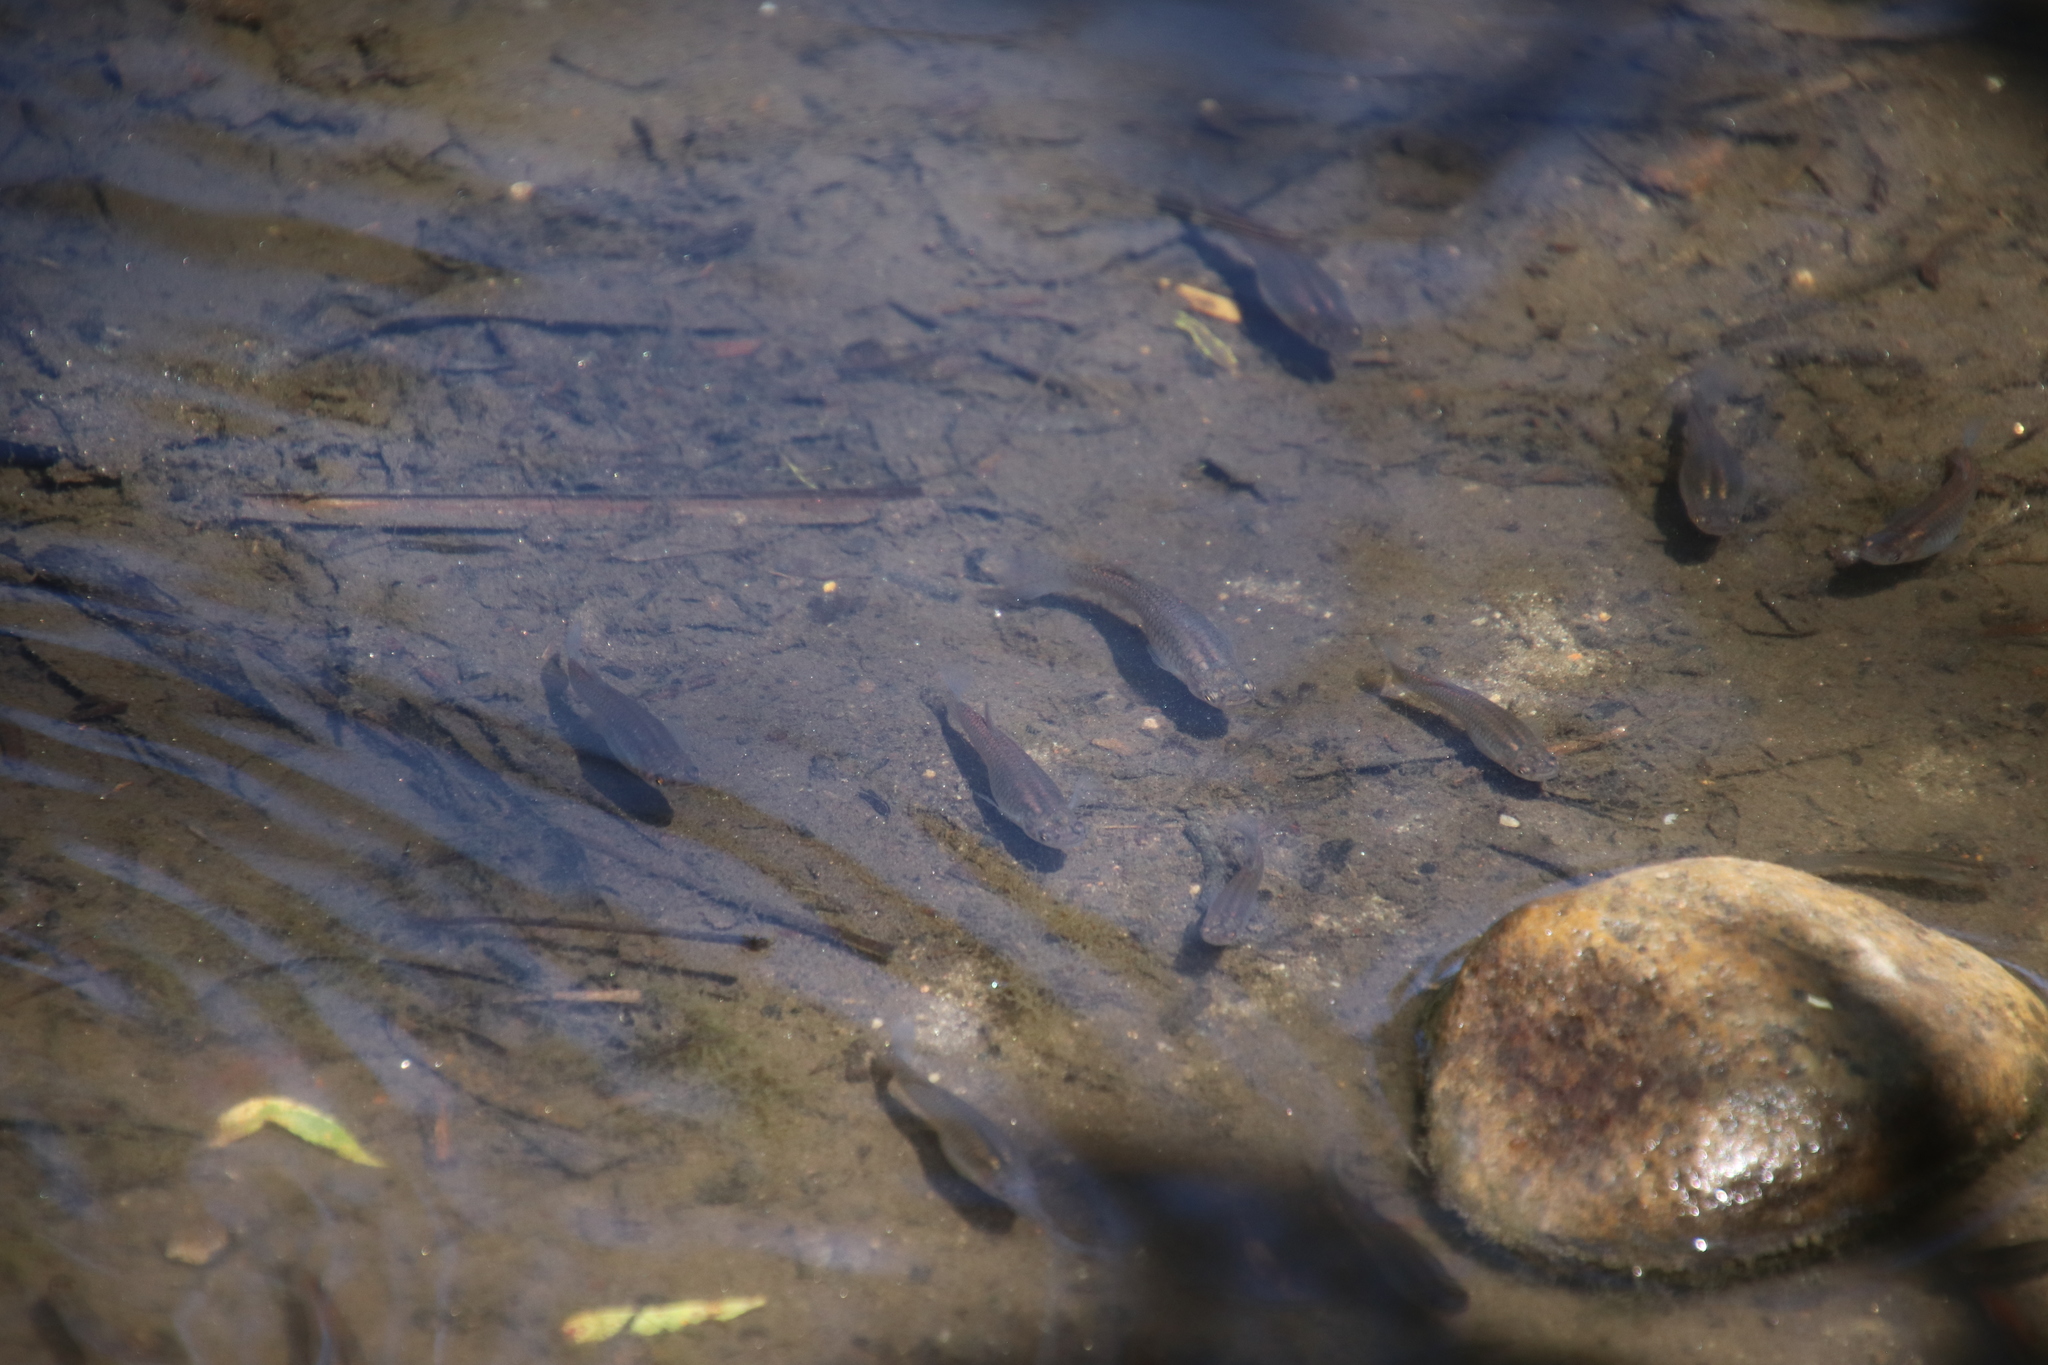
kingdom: Animalia
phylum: Chordata
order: Cyprinodontiformes
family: Poeciliidae
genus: Gambusia
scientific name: Gambusia affinis
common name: Mosquitofish
